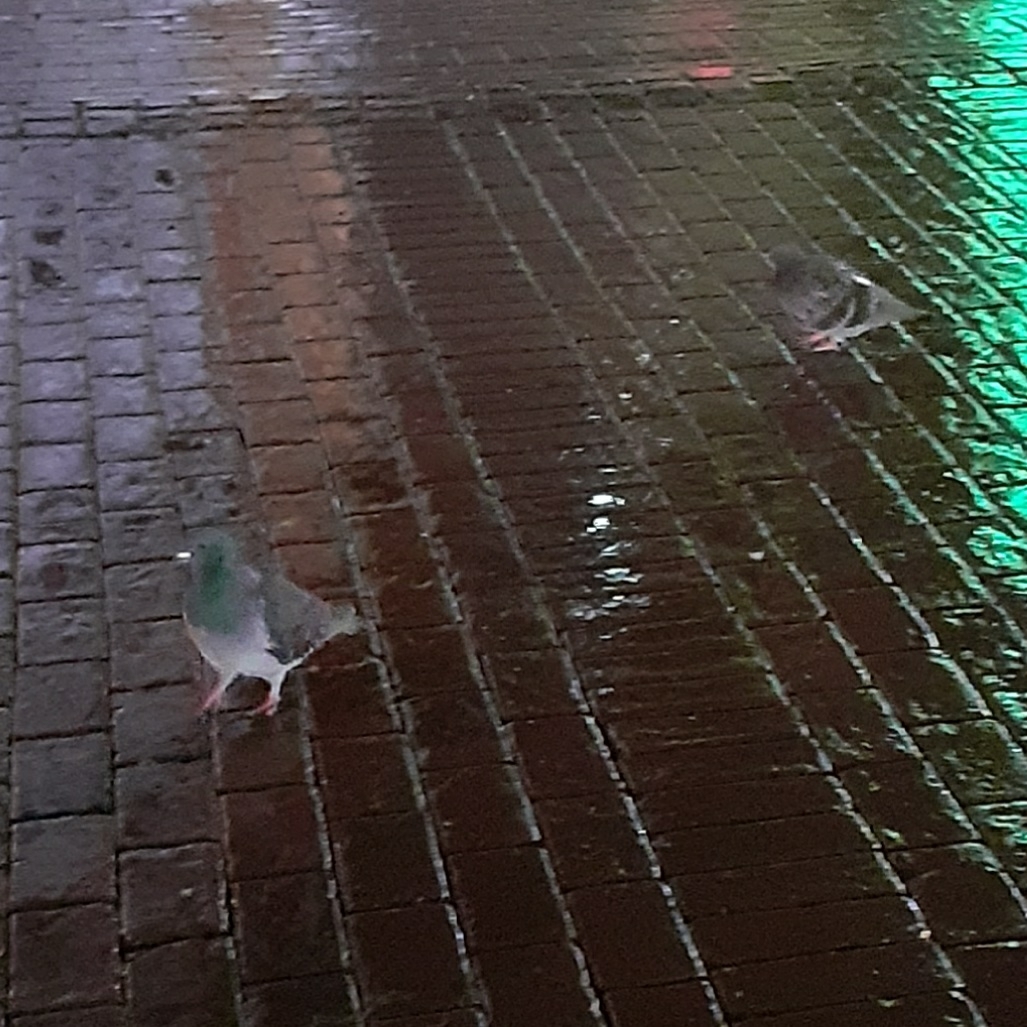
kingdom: Animalia
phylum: Chordata
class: Aves
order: Columbiformes
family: Columbidae
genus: Columba
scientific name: Columba livia
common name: Rock pigeon
